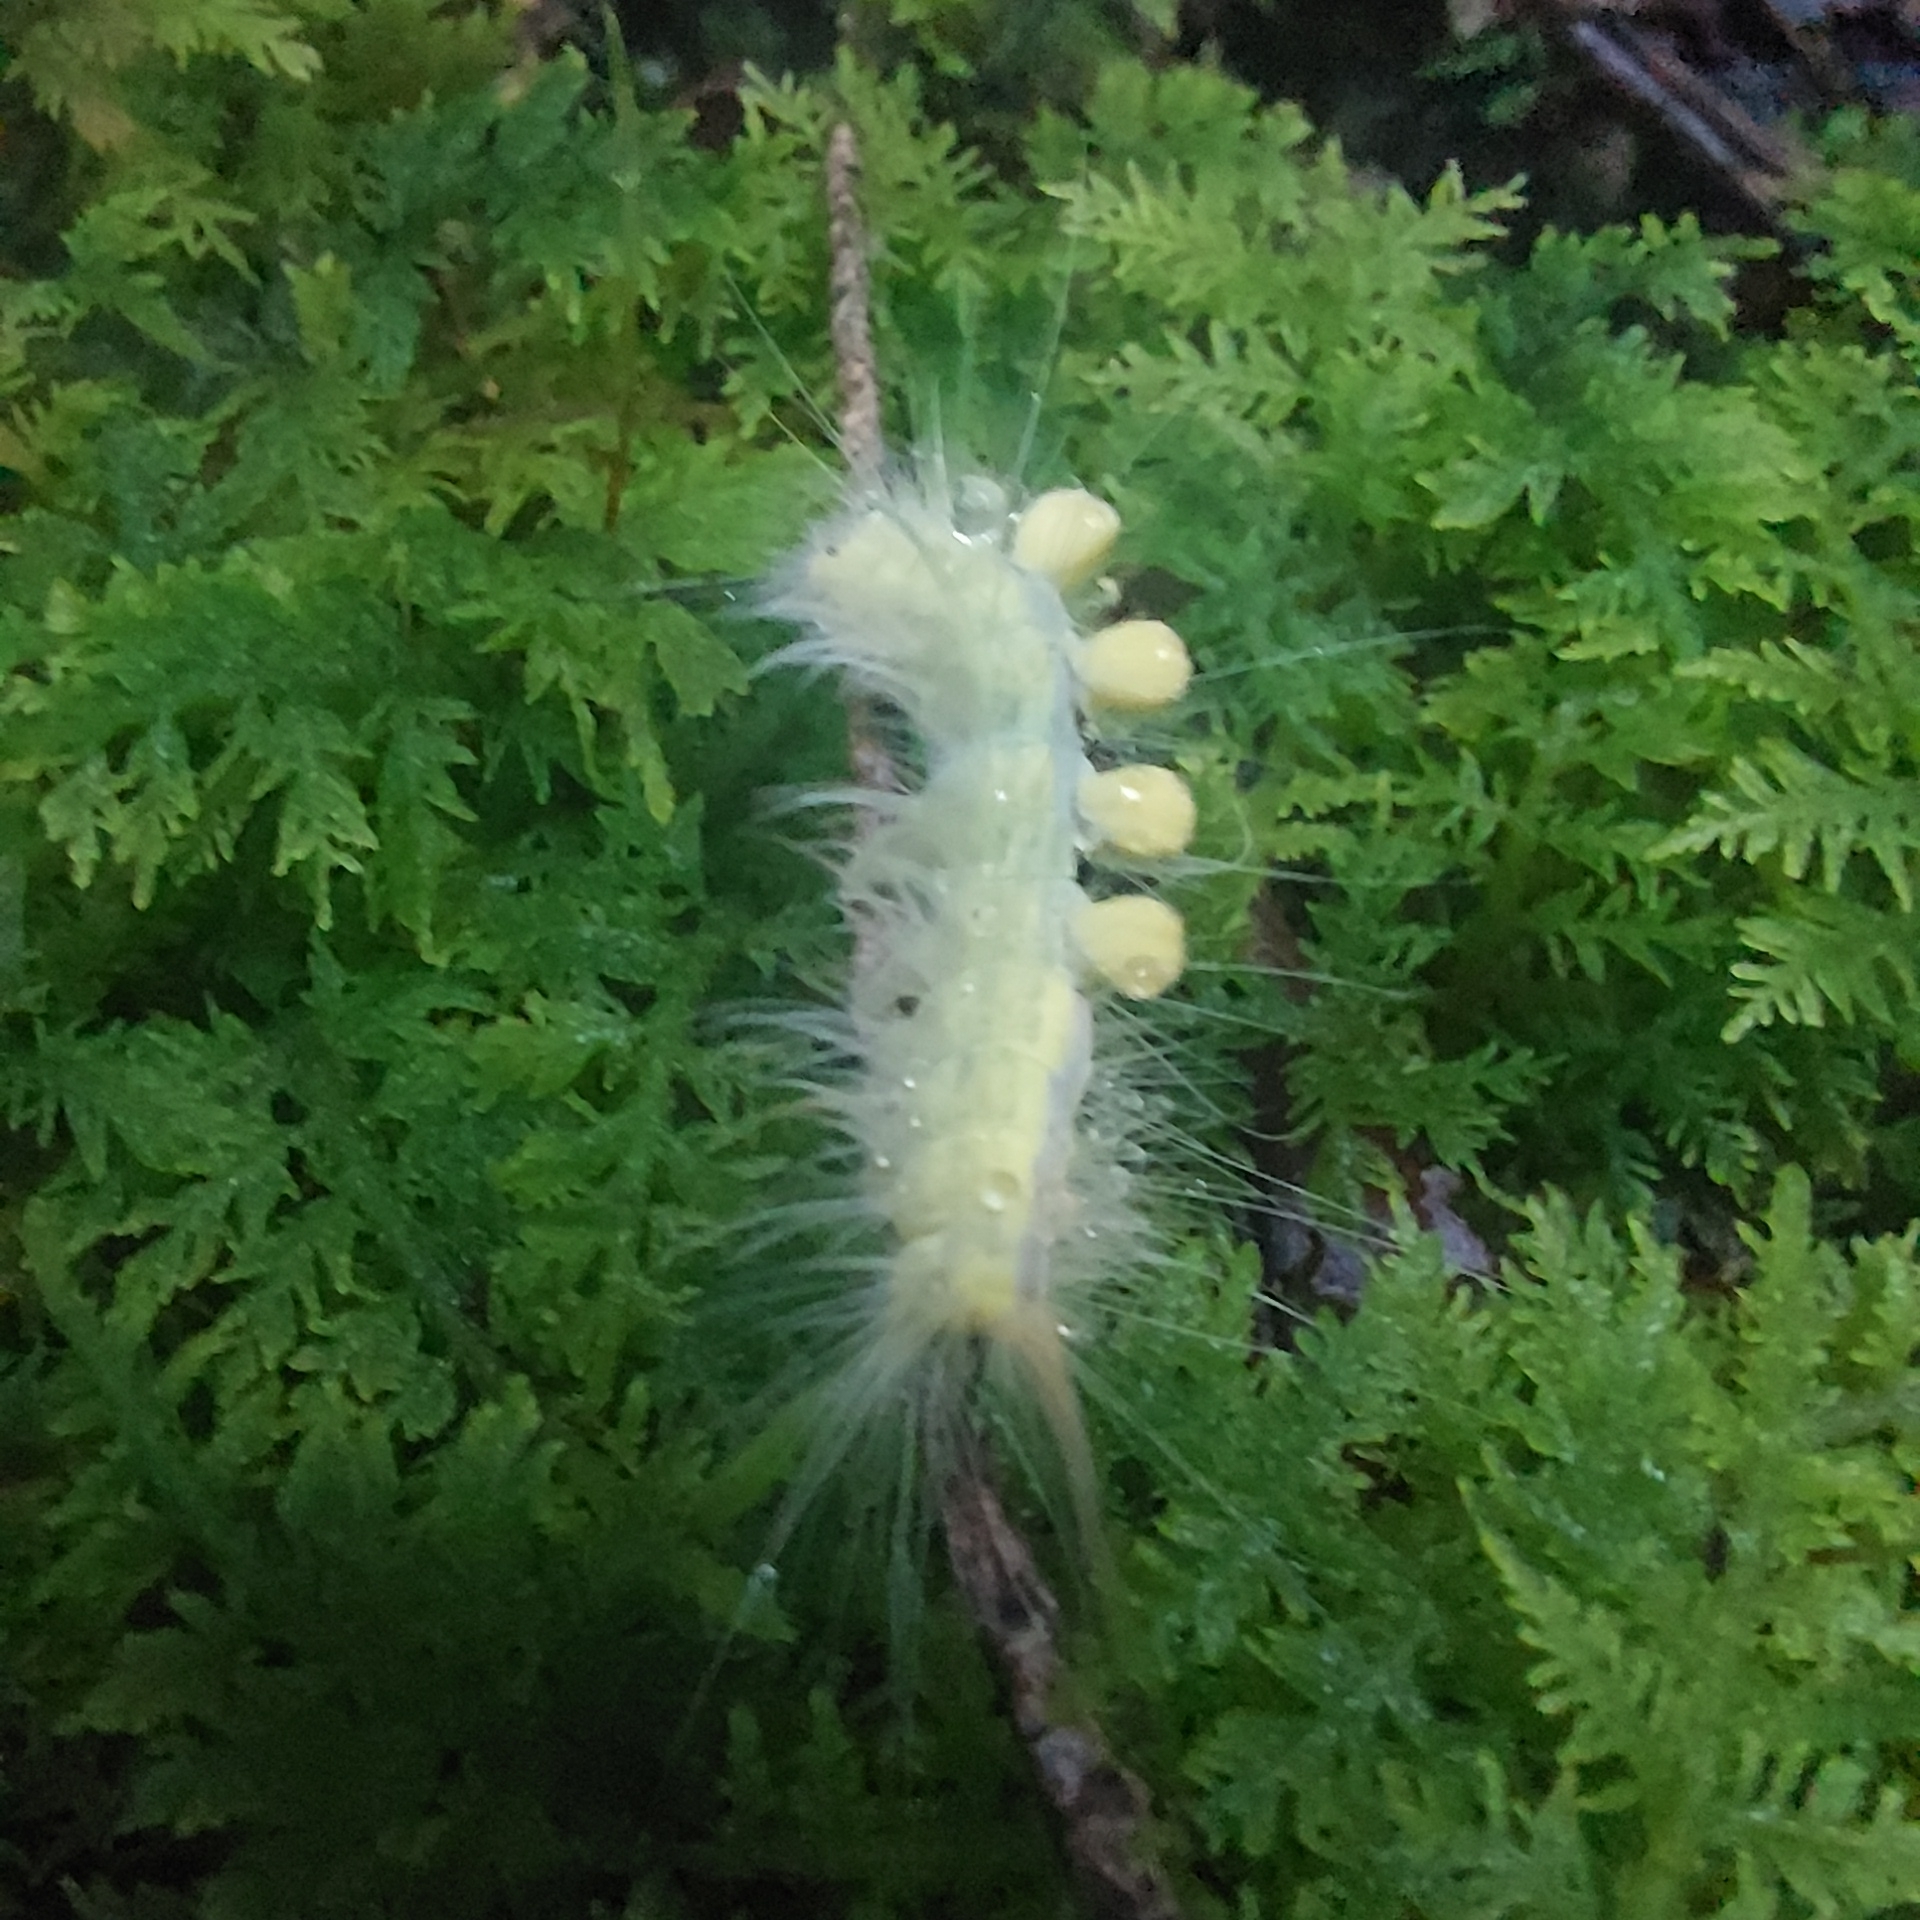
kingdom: Animalia
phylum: Arthropoda
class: Insecta
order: Lepidoptera
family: Erebidae
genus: Orgyia
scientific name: Orgyia definita
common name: Definite tussock moth
